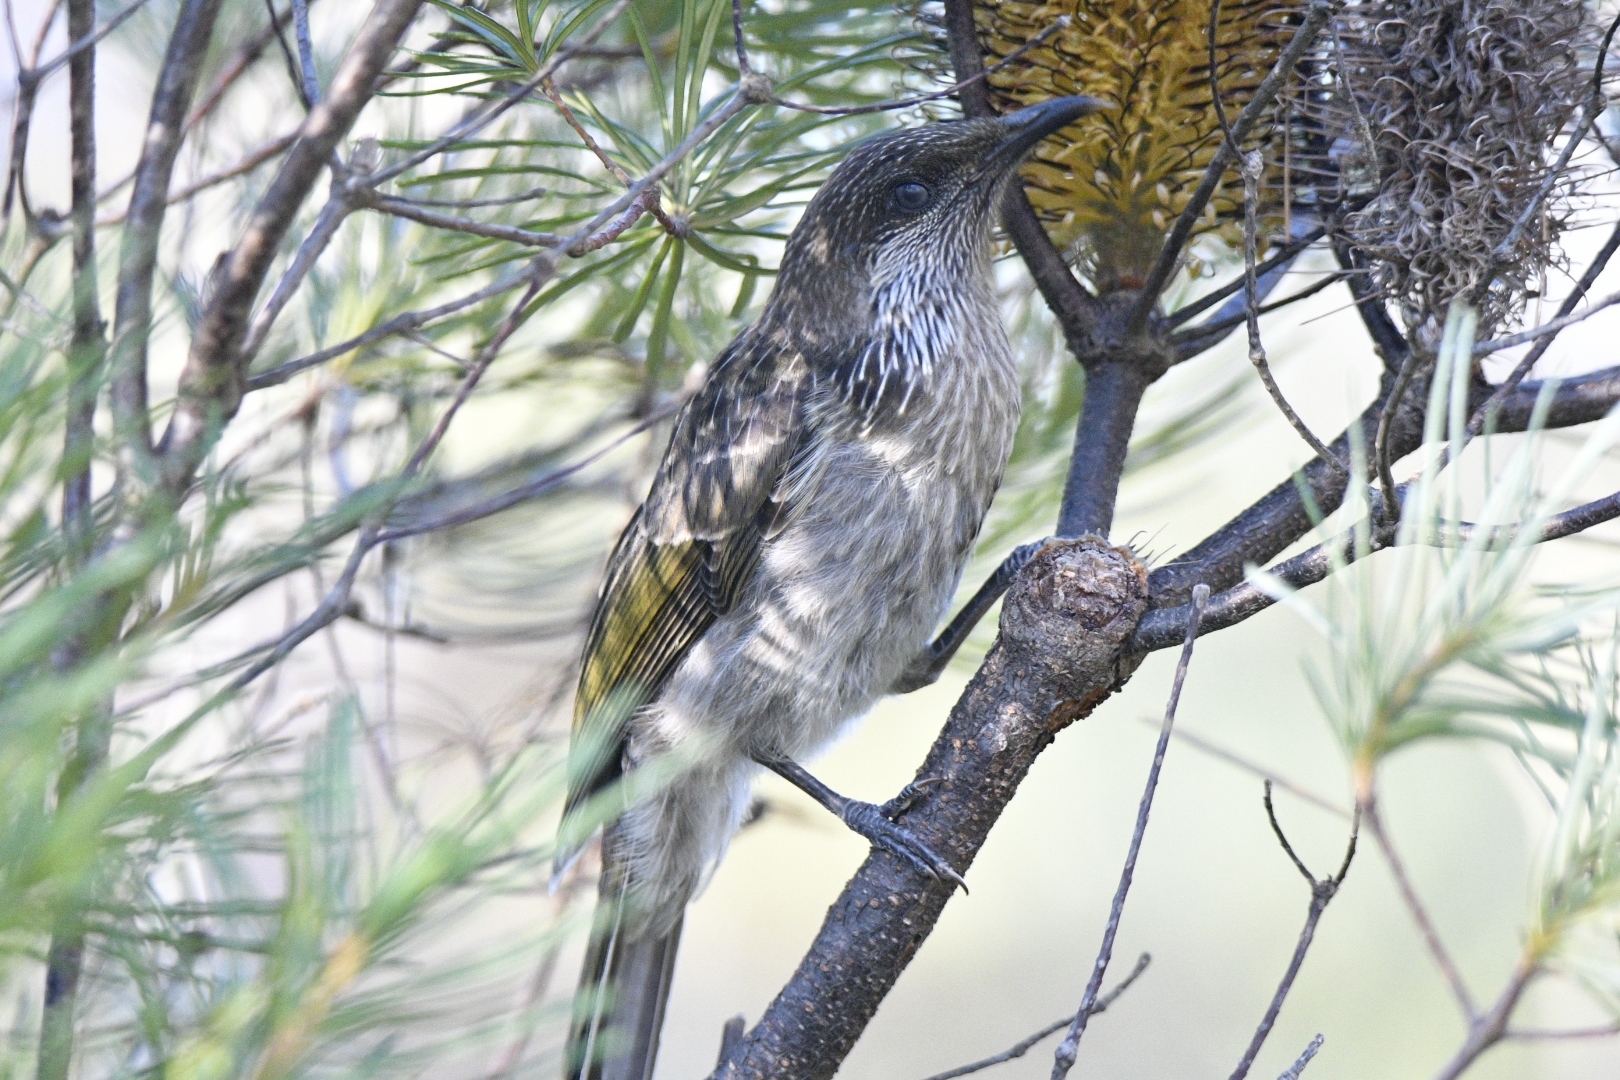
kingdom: Animalia
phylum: Chordata
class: Aves
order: Passeriformes
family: Meliphagidae
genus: Anthochaera
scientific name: Anthochaera chrysoptera
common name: Little wattlebird
